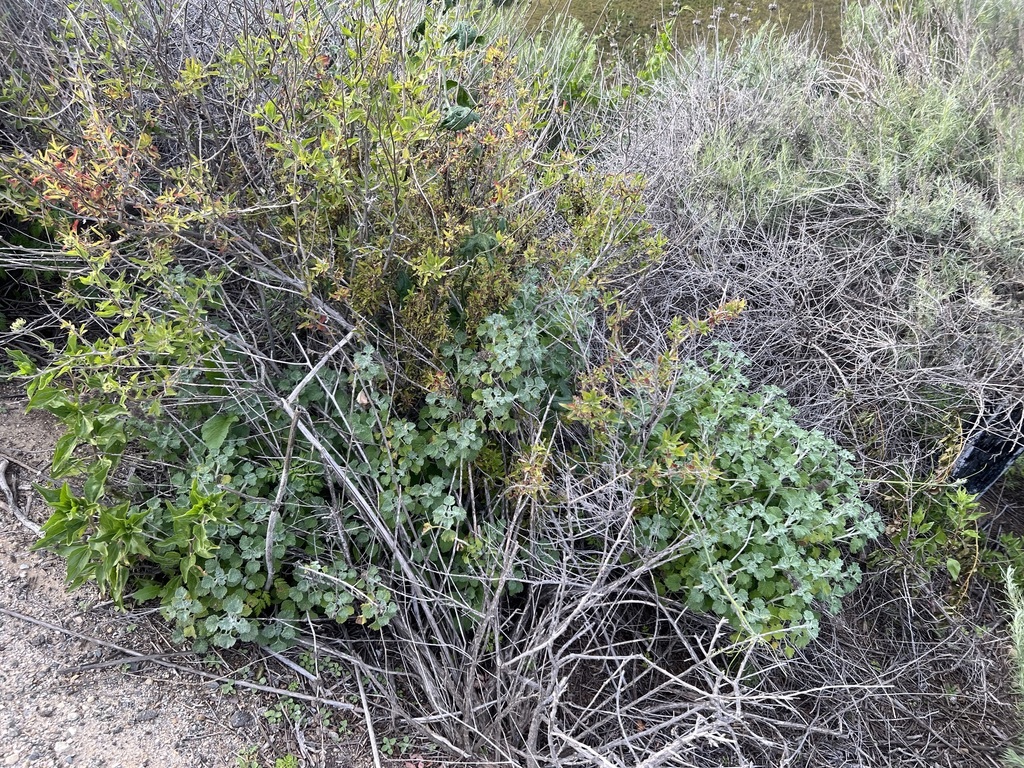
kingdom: Plantae
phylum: Tracheophyta
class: Magnoliopsida
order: Lamiales
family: Lamiaceae
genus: Marrubium
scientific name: Marrubium vulgare
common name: Horehound
